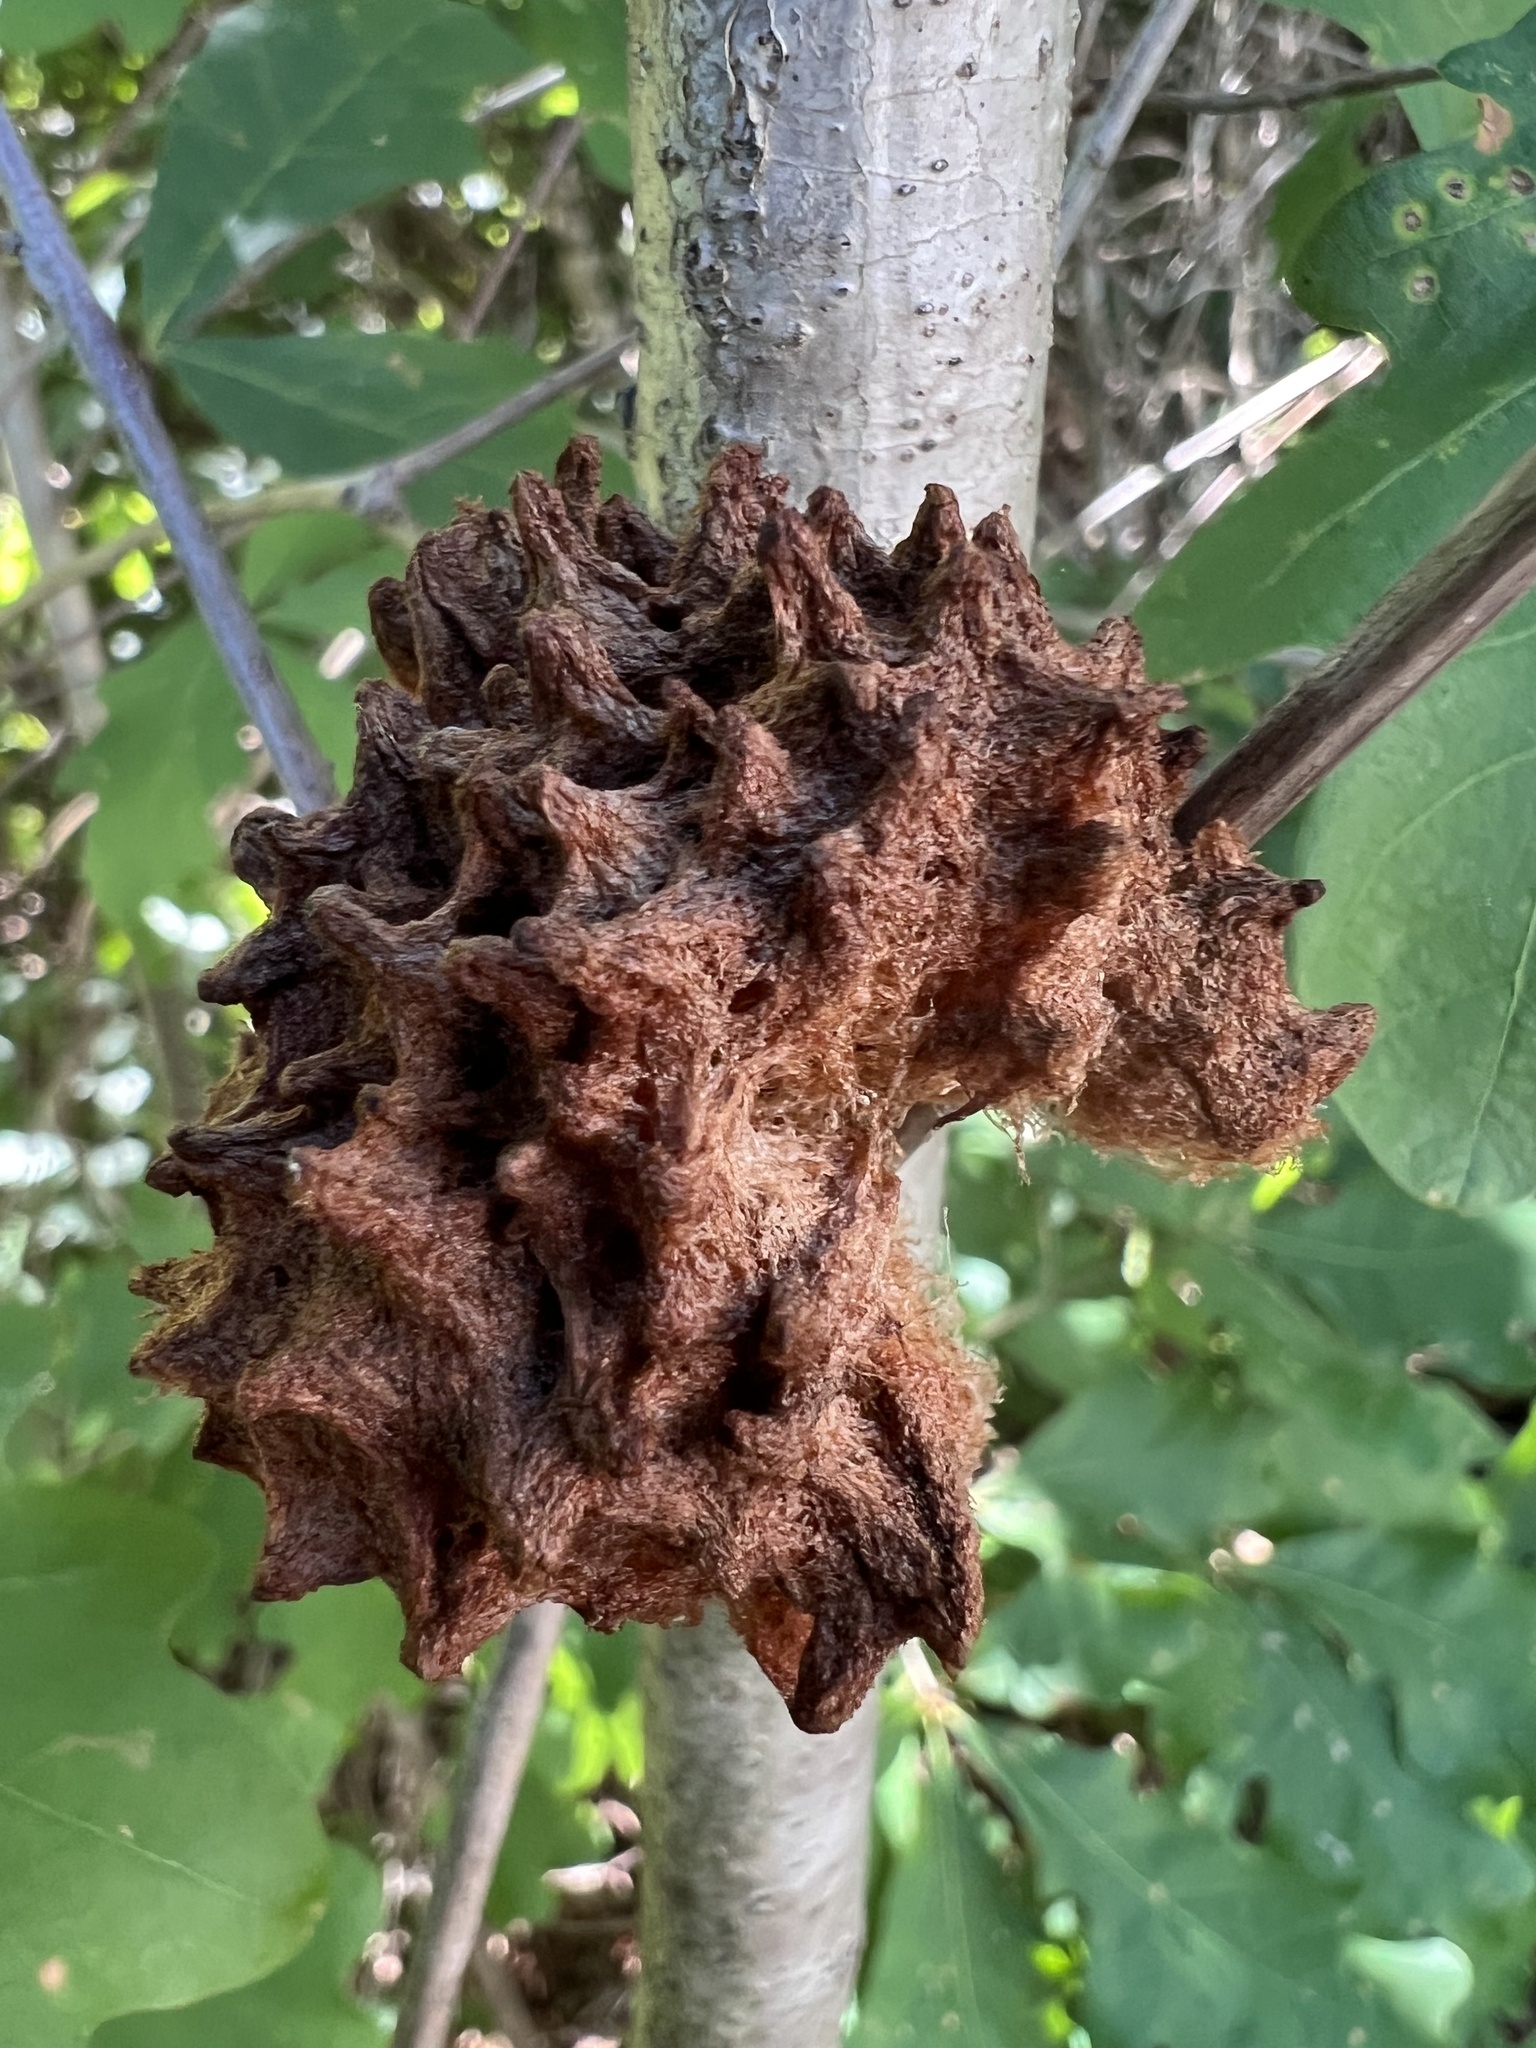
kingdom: Animalia
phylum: Arthropoda
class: Insecta
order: Hymenoptera
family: Cynipidae
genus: Callirhytis
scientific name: Callirhytis
